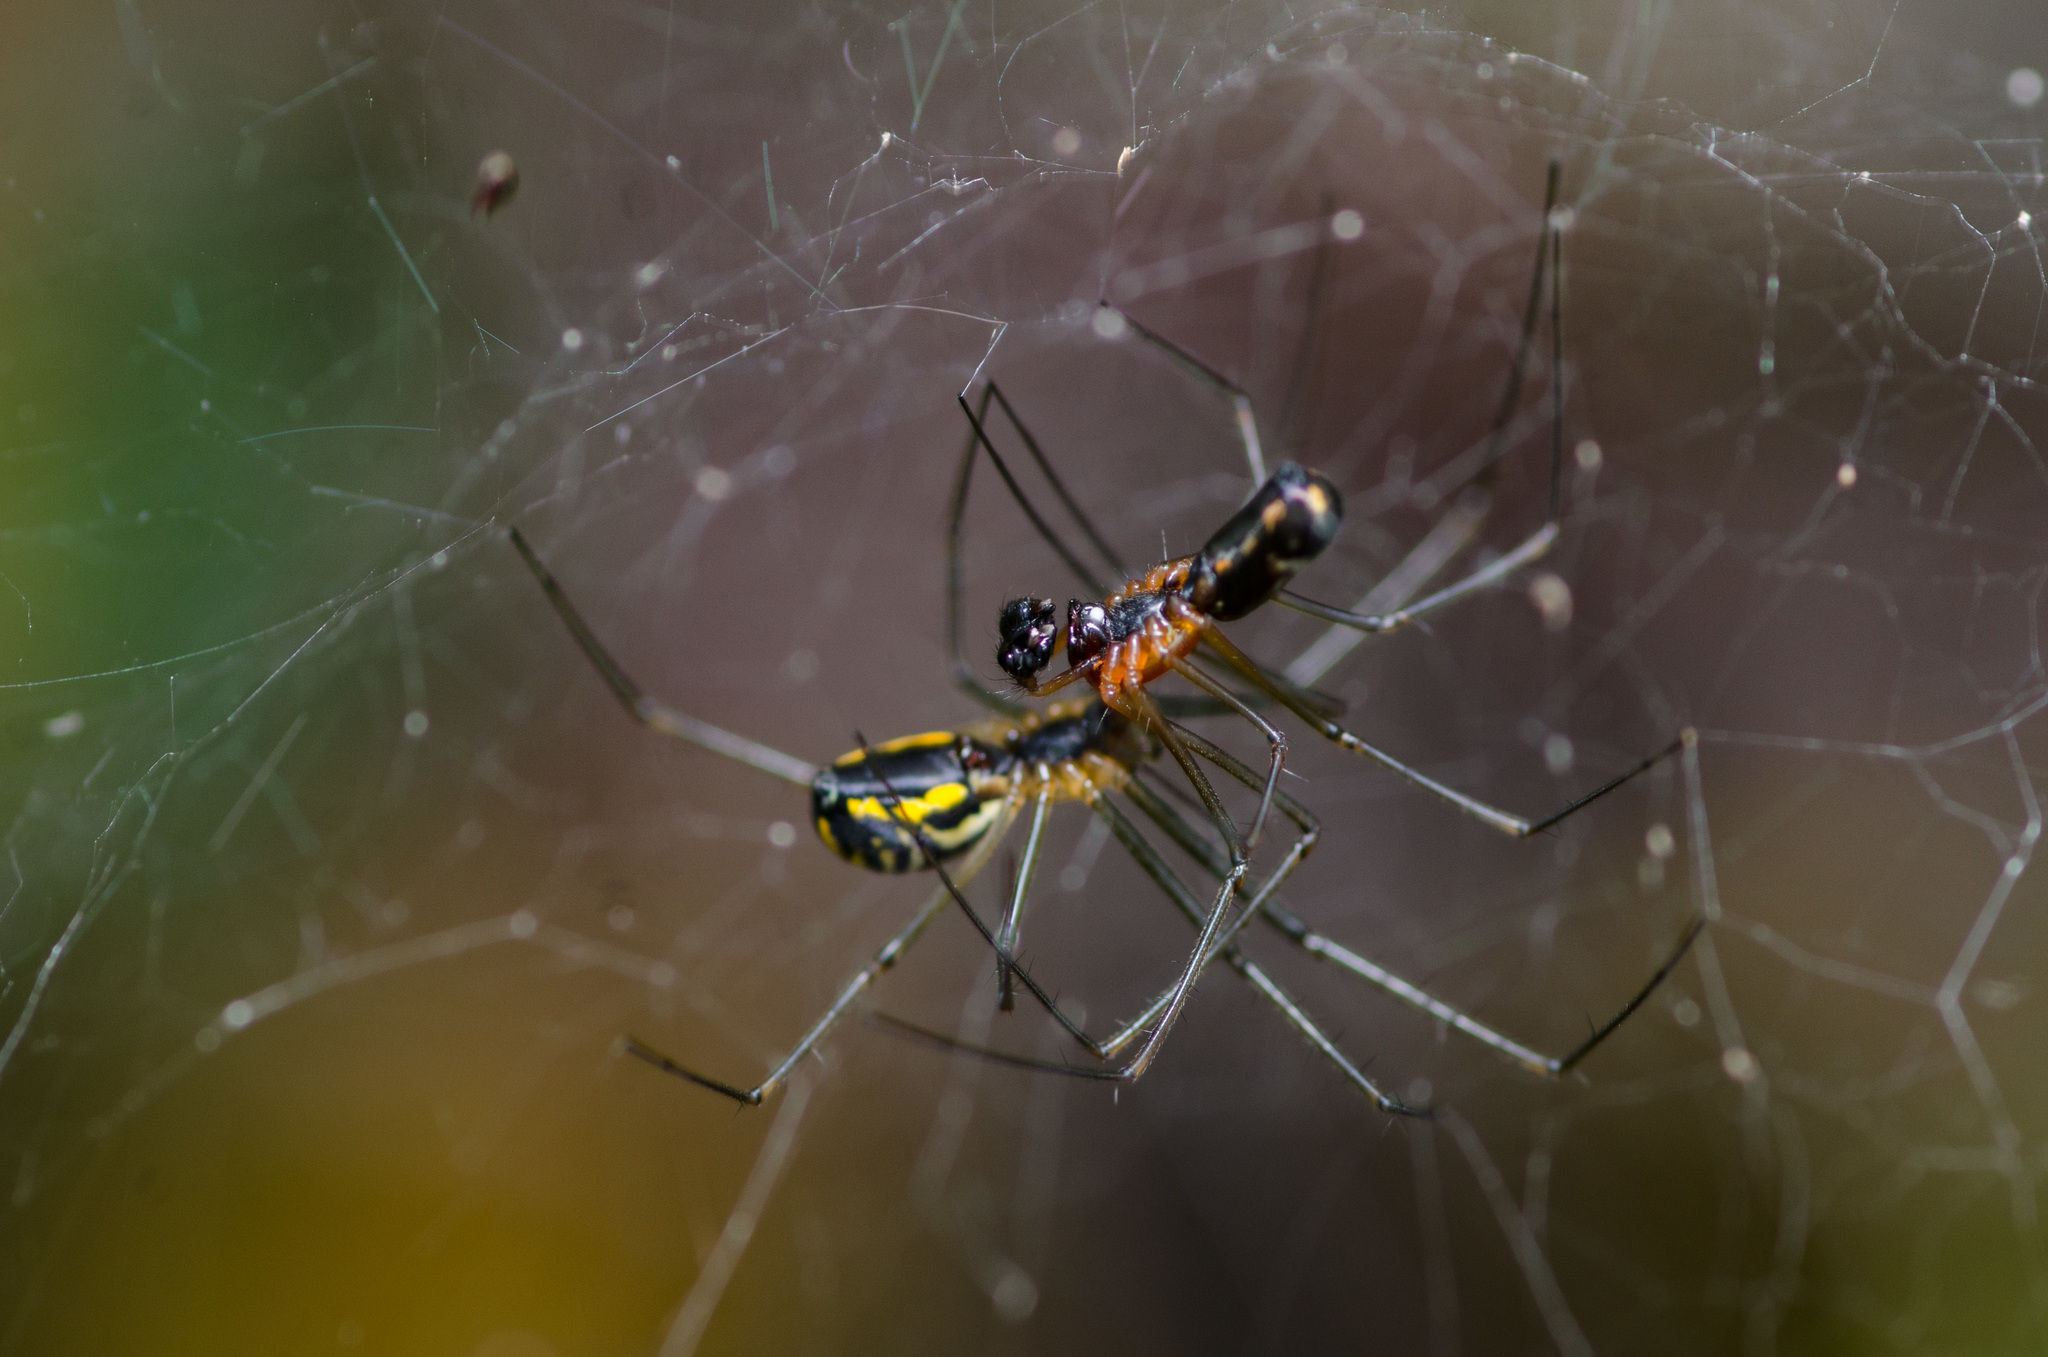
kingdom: Animalia
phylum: Arthropoda
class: Arachnida
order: Araneae
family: Linyphiidae
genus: Neriene
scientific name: Neriene radiata
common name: Filmy dome spider
